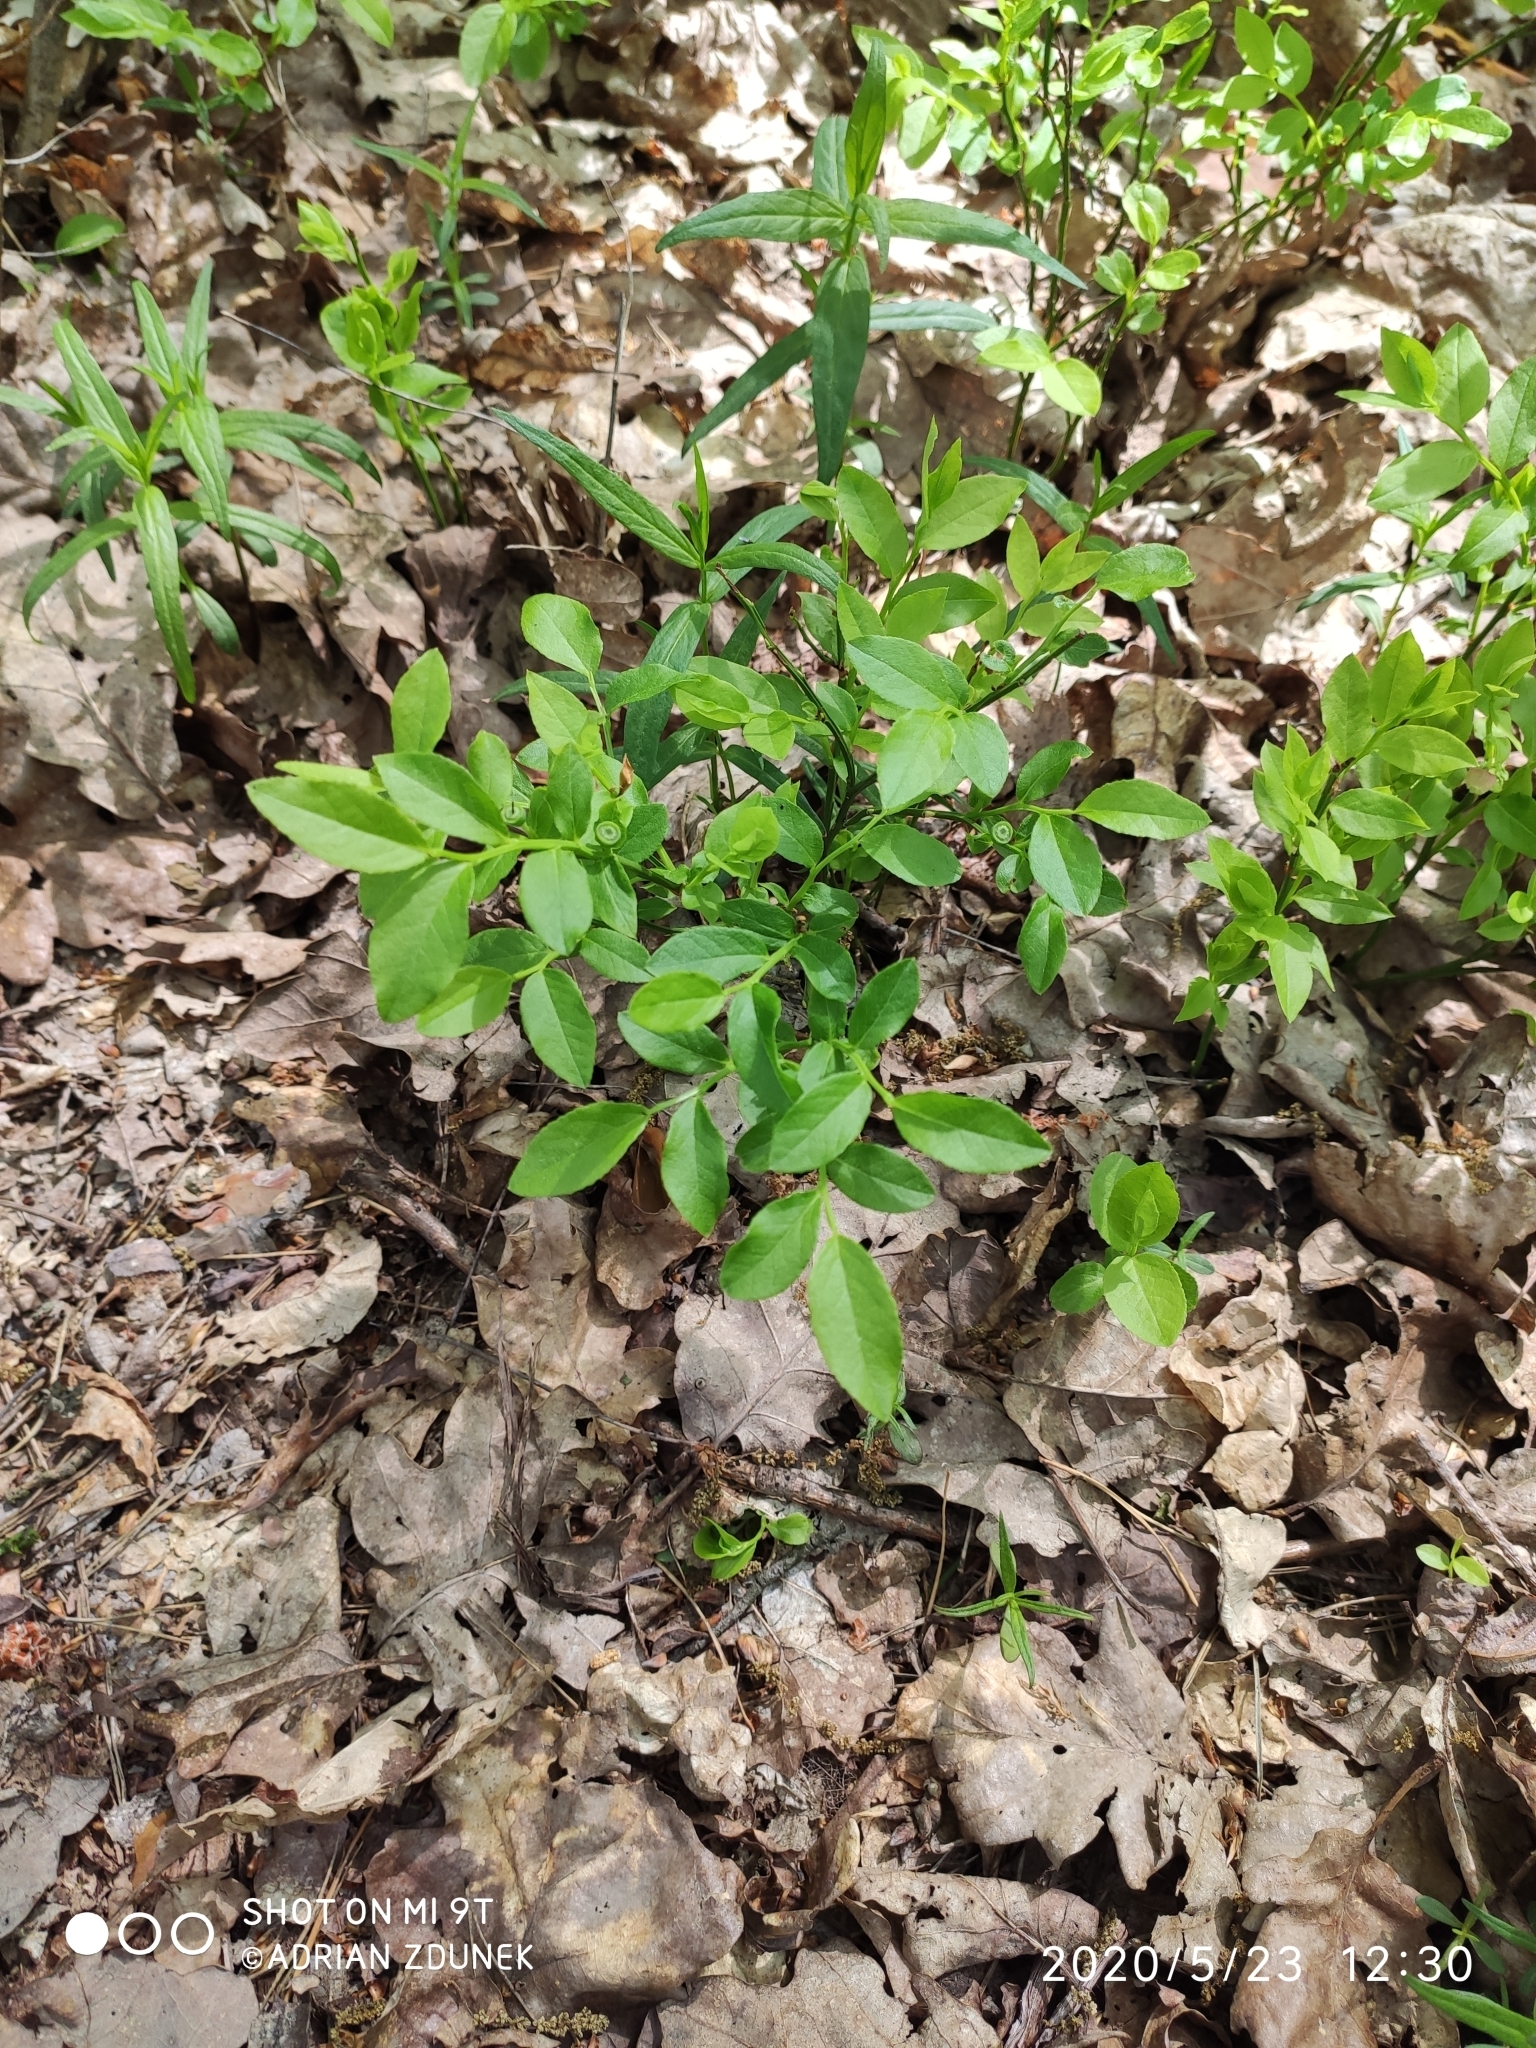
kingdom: Plantae
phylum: Tracheophyta
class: Magnoliopsida
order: Ericales
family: Ericaceae
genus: Vaccinium
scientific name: Vaccinium myrtillus
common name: Bilberry
